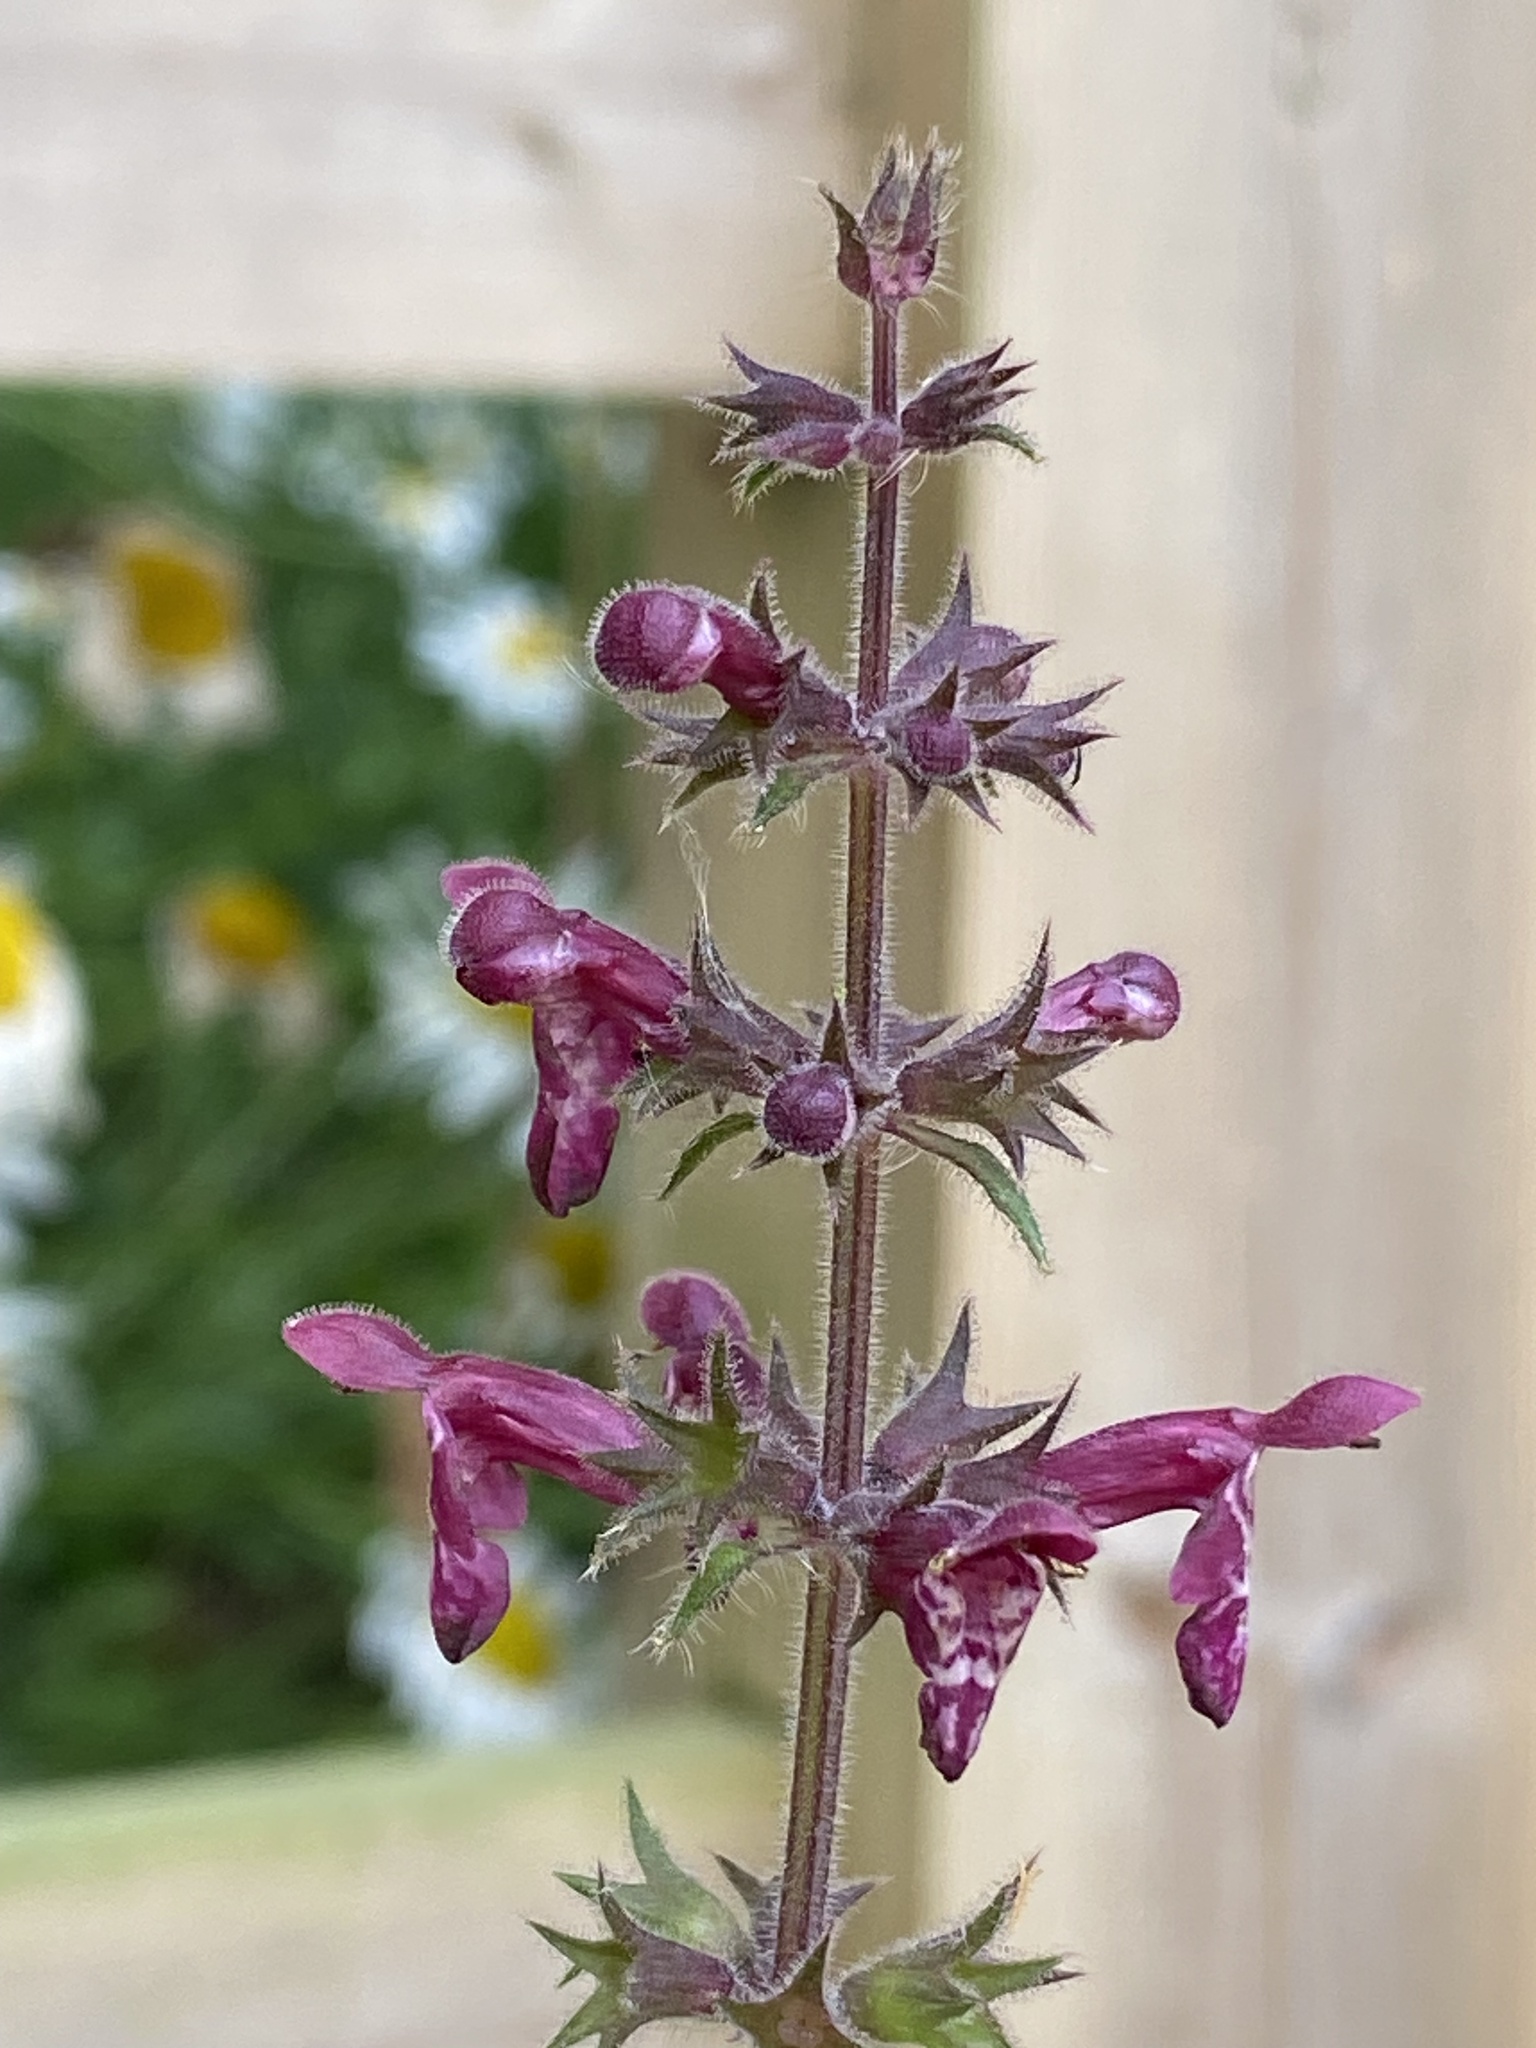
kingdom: Plantae
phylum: Tracheophyta
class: Magnoliopsida
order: Lamiales
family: Lamiaceae
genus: Stachys
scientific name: Stachys sylvatica
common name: Hedge woundwort
